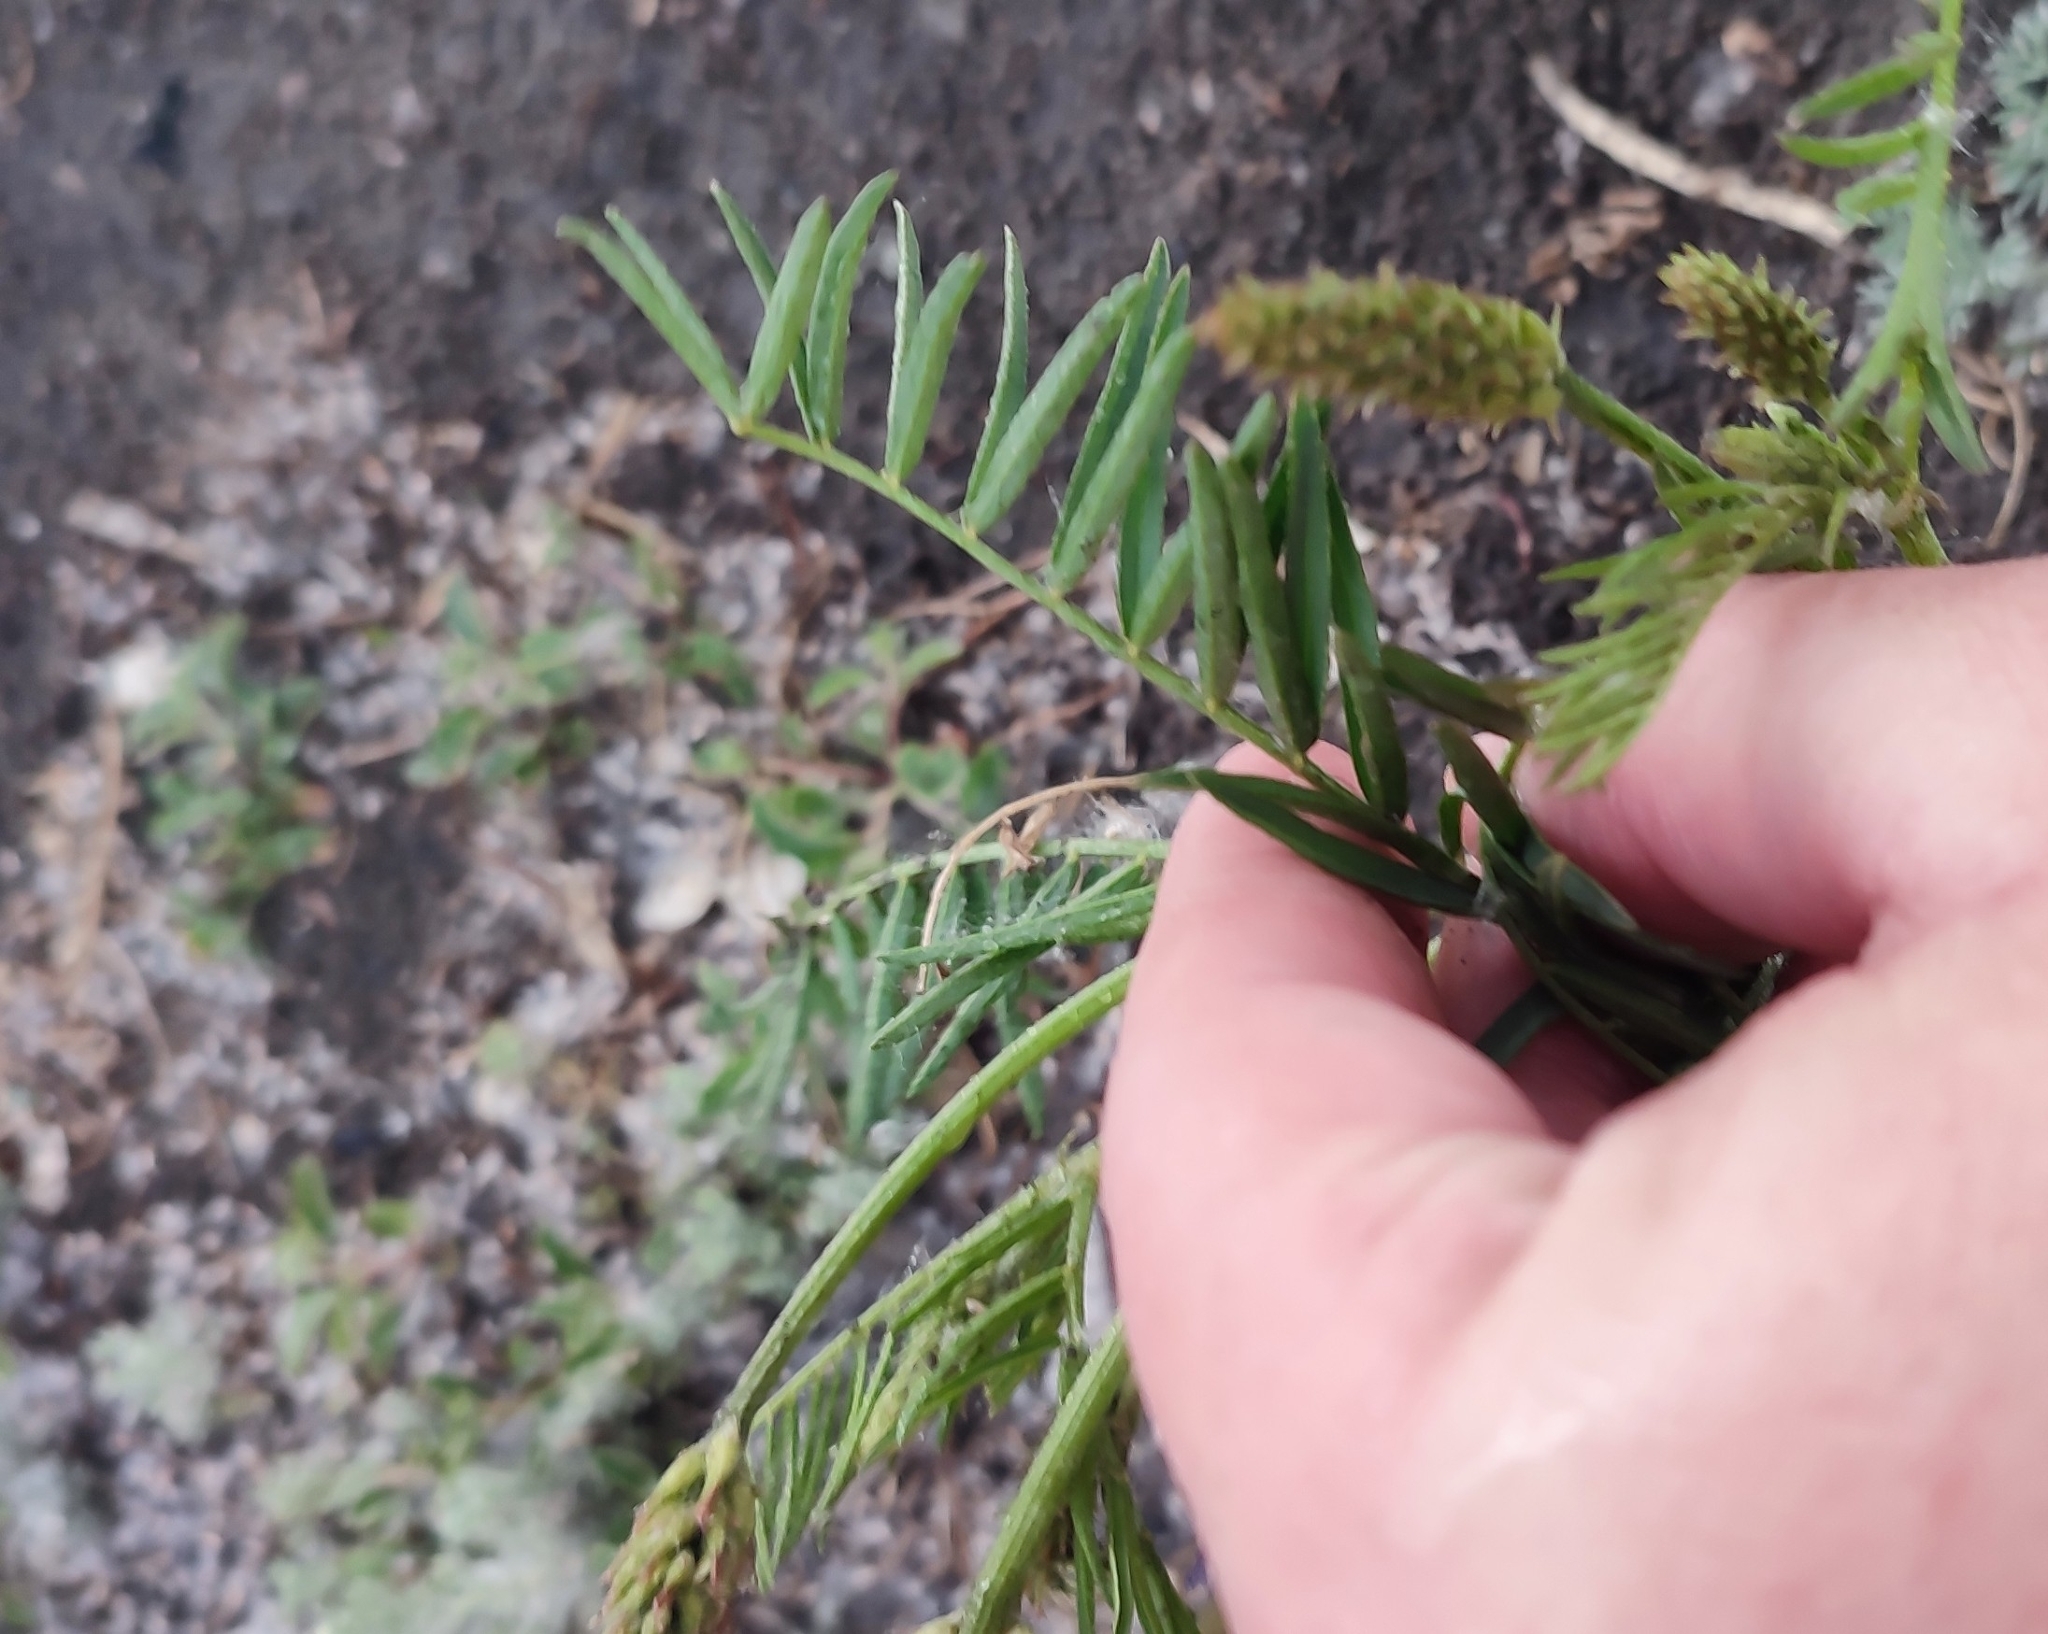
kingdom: Plantae
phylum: Tracheophyta
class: Magnoliopsida
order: Fabales
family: Fabaceae
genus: Astragalus
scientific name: Astragalus onobrychis
